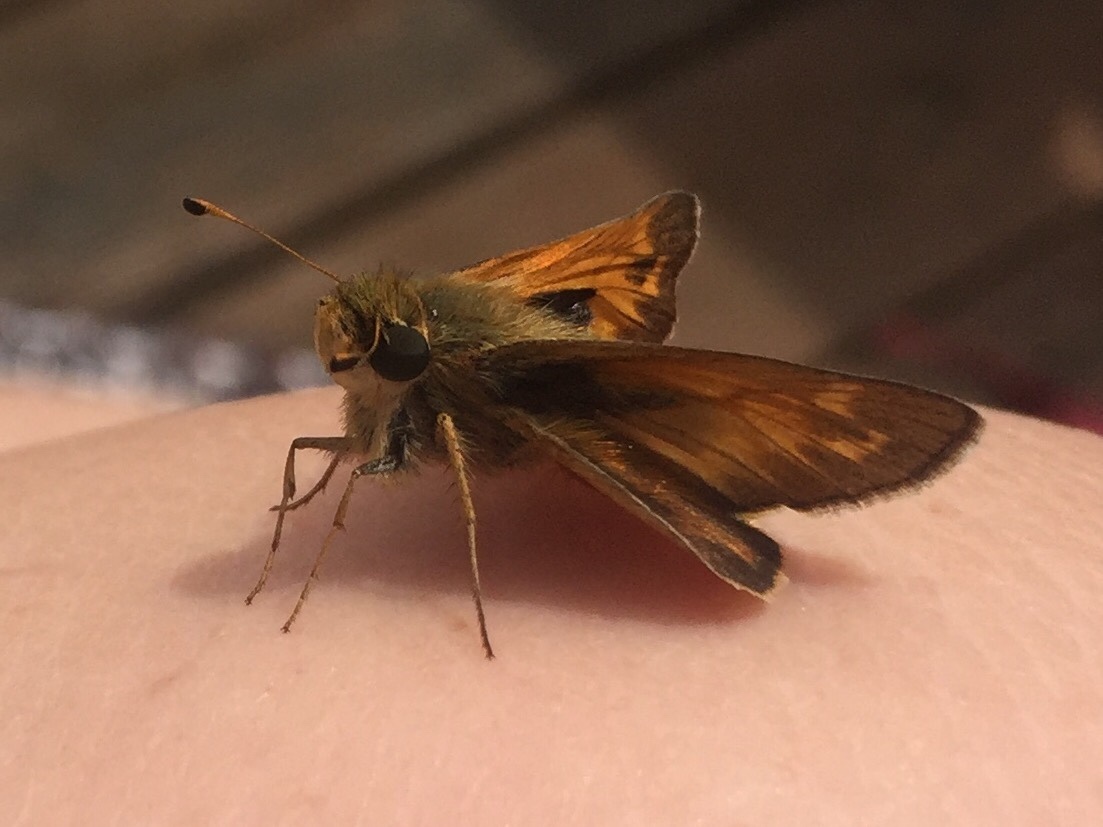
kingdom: Animalia
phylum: Arthropoda
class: Insecta
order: Lepidoptera
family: Hesperiidae
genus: Atalopedes
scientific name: Atalopedes
